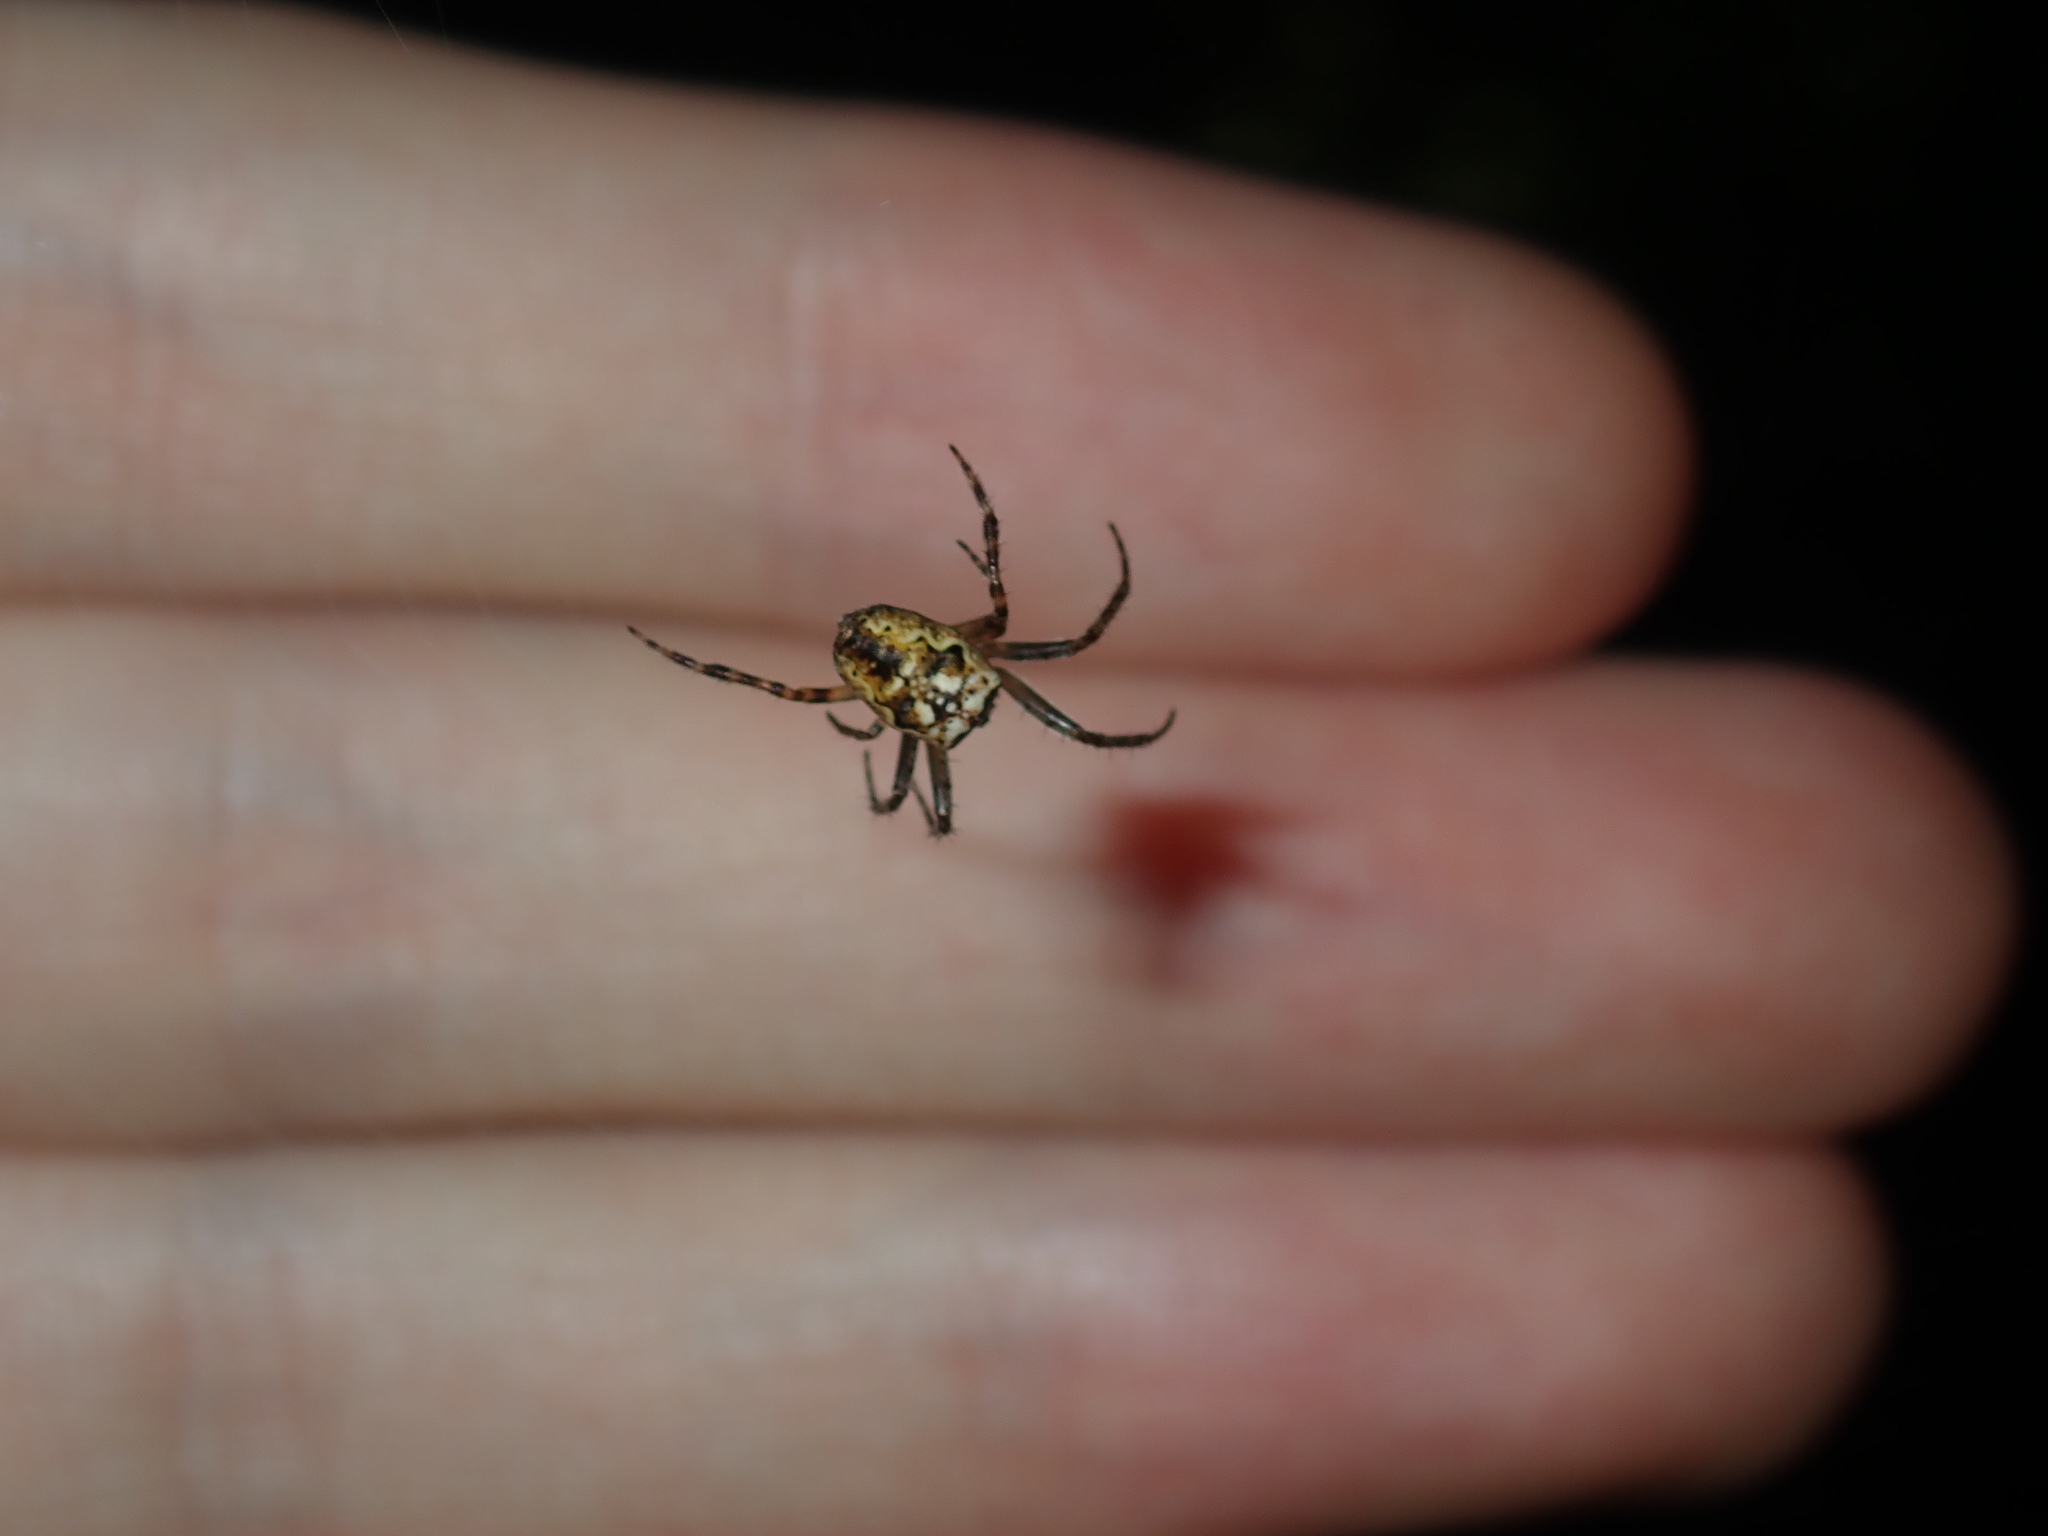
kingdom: Animalia
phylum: Arthropoda
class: Arachnida
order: Araneae
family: Araneidae
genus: Plebs
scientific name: Plebs eburnus
